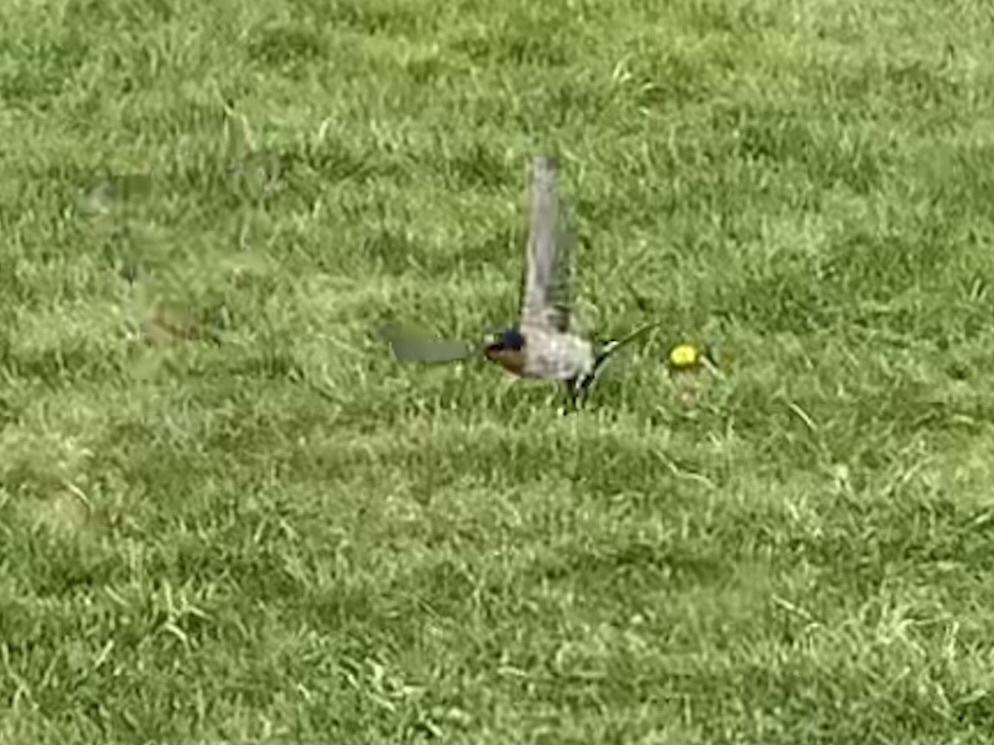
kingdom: Animalia
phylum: Chordata
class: Aves
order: Passeriformes
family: Hirundinidae
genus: Hirundo
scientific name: Hirundo neoxena
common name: Welcome swallow
